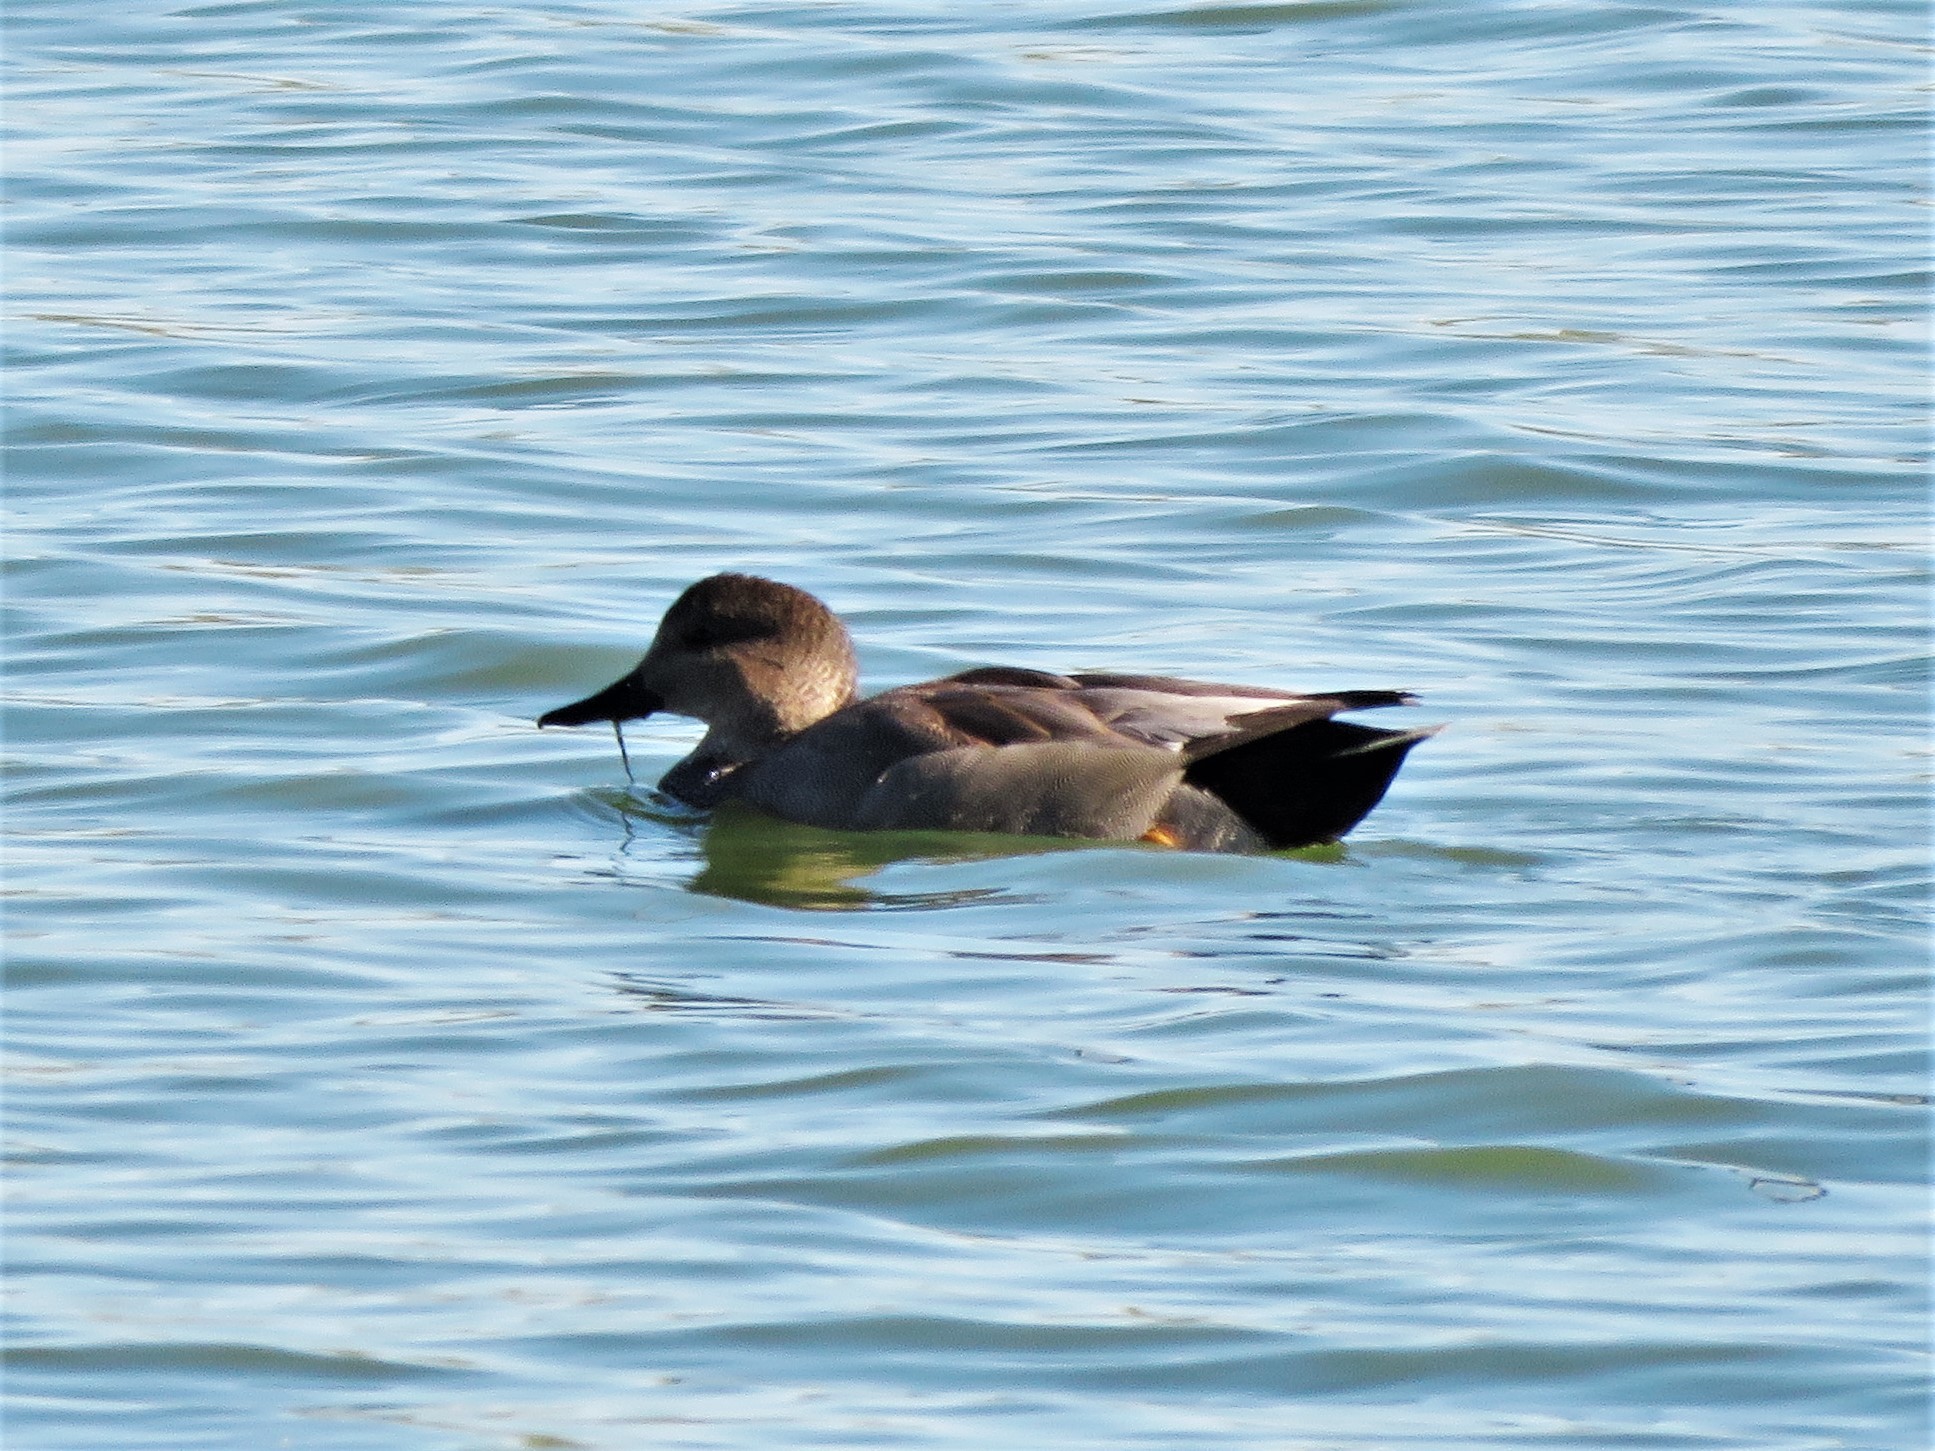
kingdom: Animalia
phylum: Chordata
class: Aves
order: Anseriformes
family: Anatidae
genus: Mareca
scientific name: Mareca strepera
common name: Gadwall
